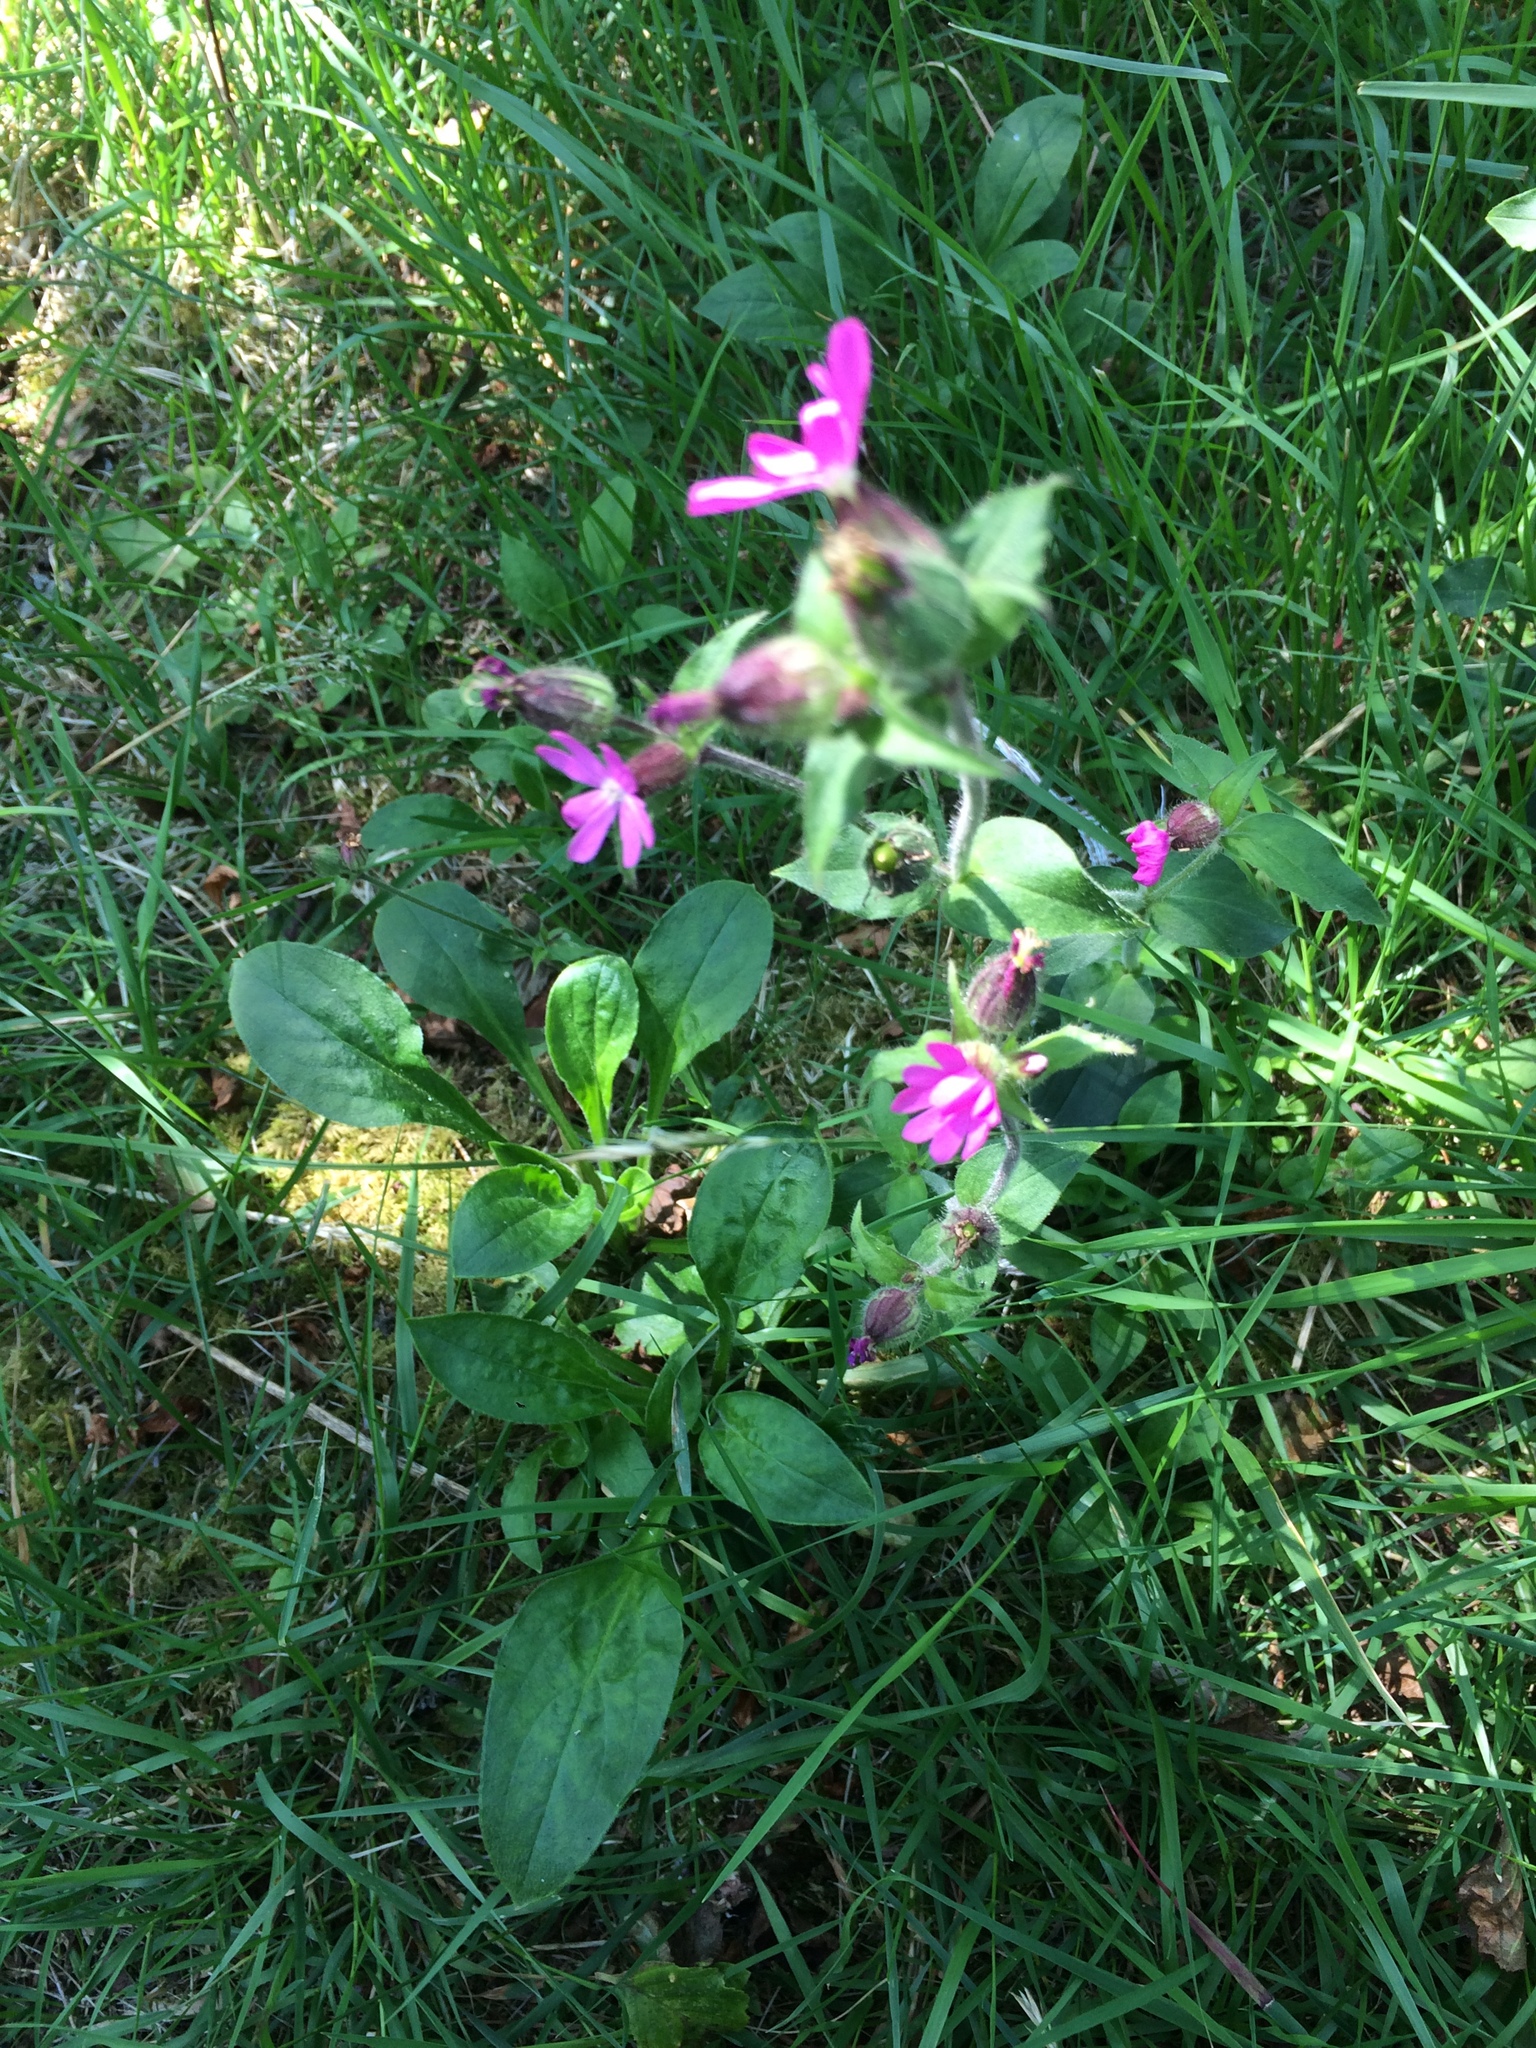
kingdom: Plantae
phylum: Tracheophyta
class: Magnoliopsida
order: Caryophyllales
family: Caryophyllaceae
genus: Silene
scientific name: Silene dioica
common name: Red campion
